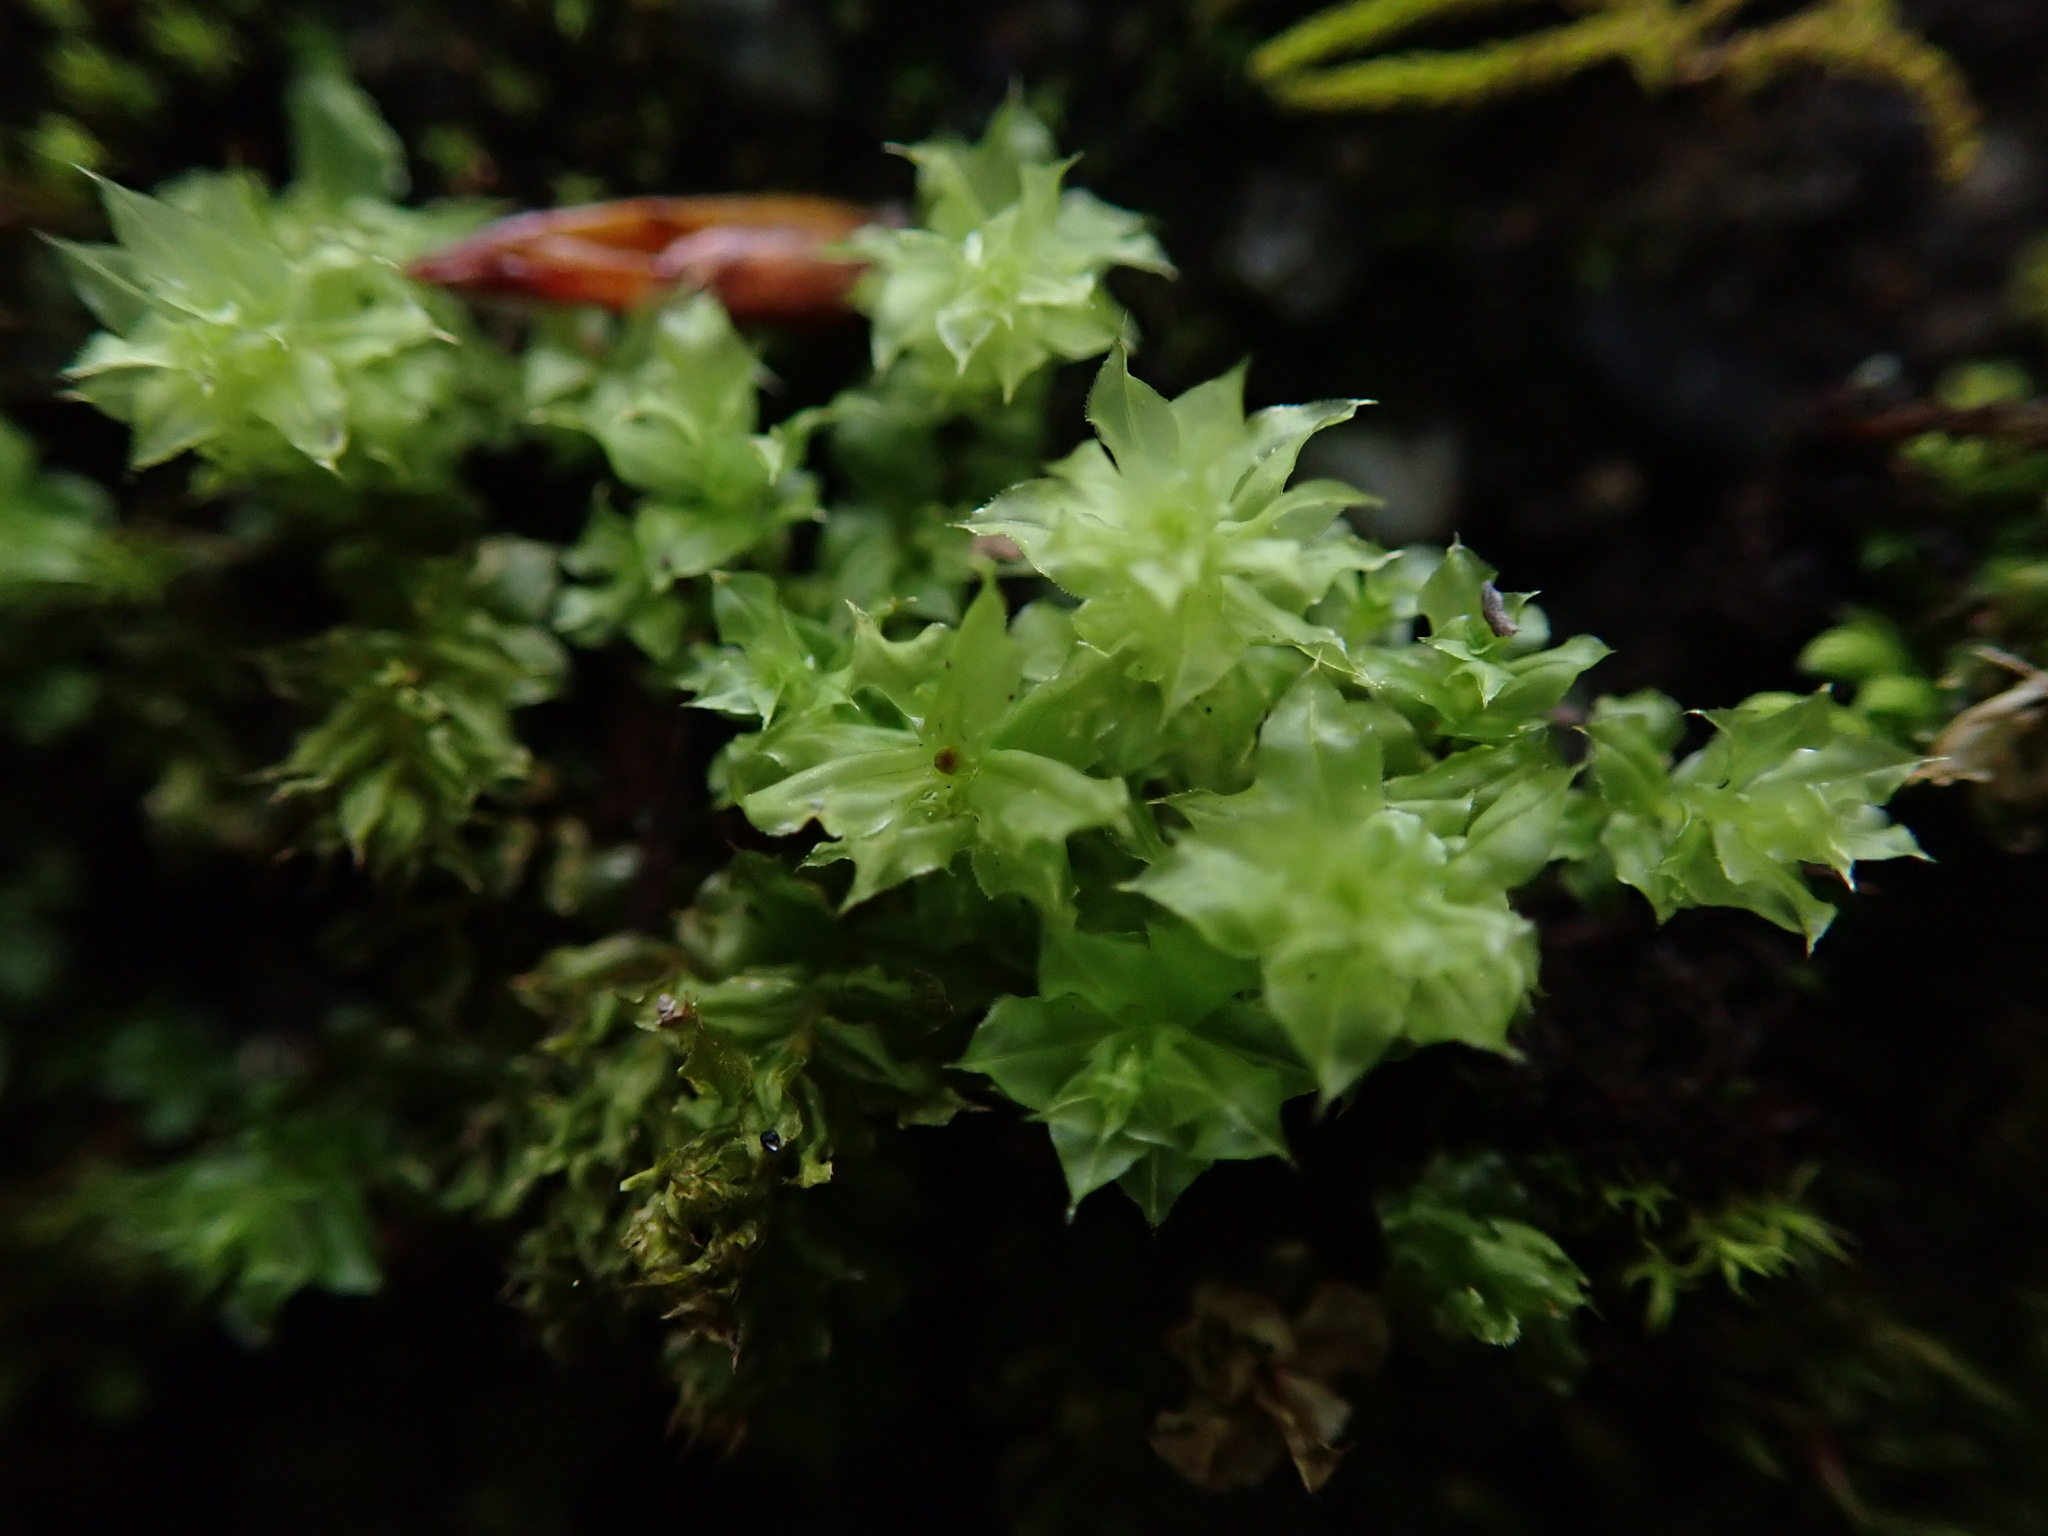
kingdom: Plantae
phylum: Bryophyta
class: Bryopsida
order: Bryales
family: Mniaceae
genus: Plagiomnium
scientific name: Plagiomnium venustum
